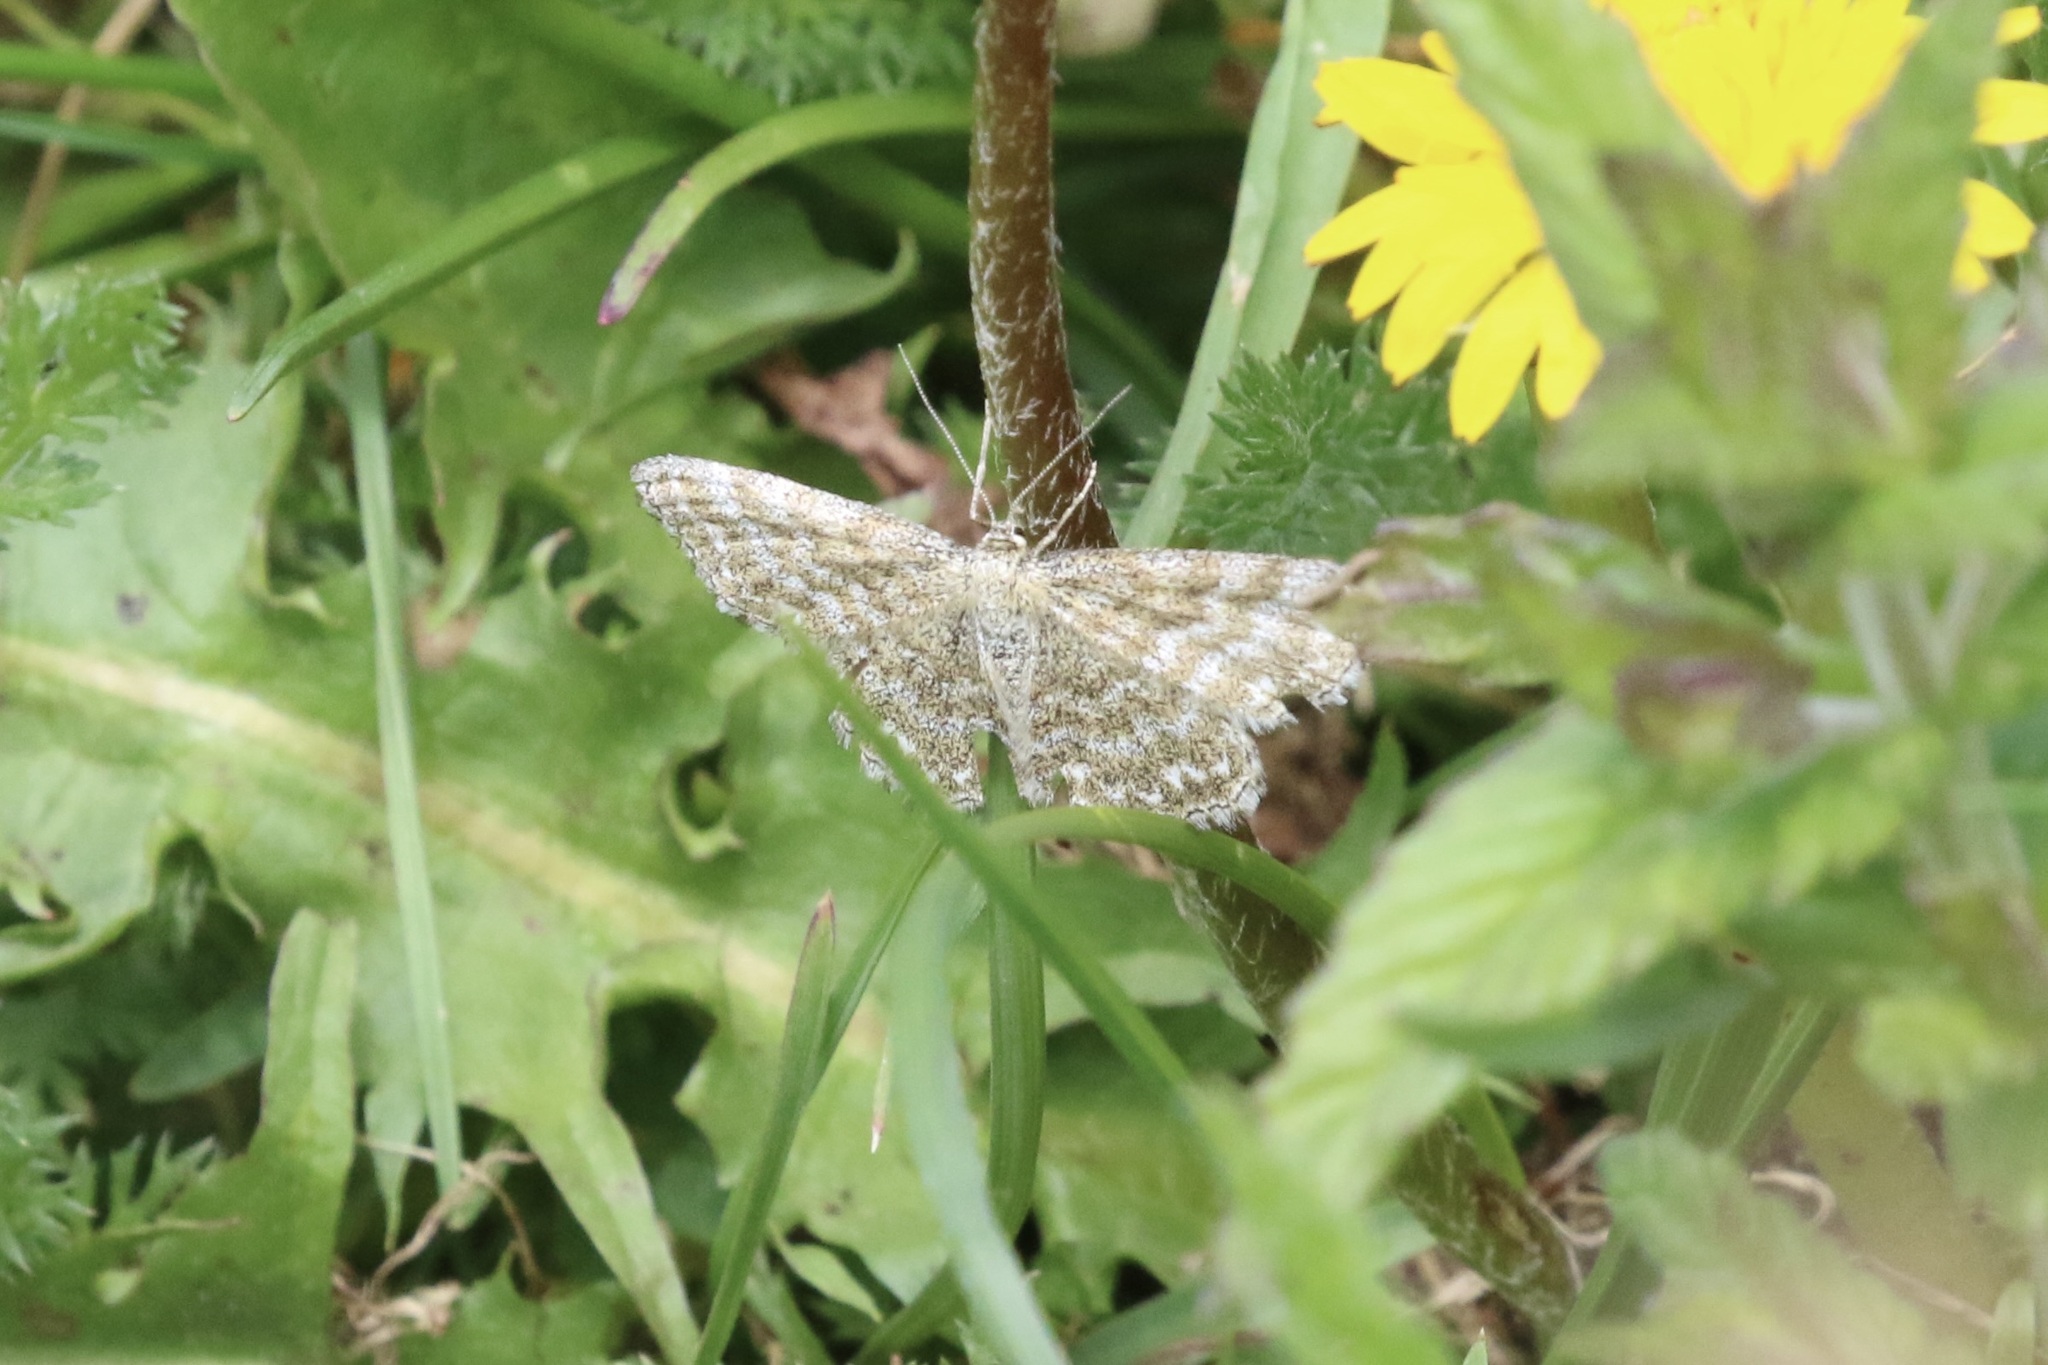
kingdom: Animalia
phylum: Arthropoda
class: Insecta
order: Lepidoptera
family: Geometridae
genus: Scopula
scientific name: Scopula immorata
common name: Lewes wave
